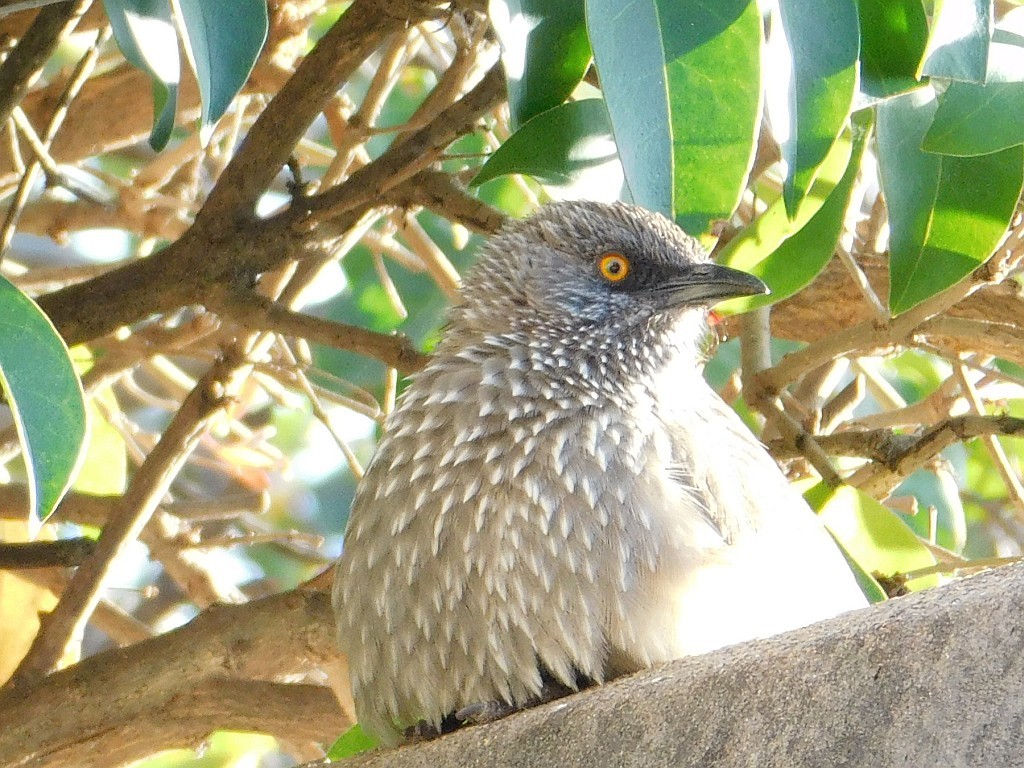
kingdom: Animalia
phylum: Chordata
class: Aves
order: Passeriformes
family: Leiothrichidae
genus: Turdoides
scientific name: Turdoides jardineii
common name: Arrow-marked babbler
